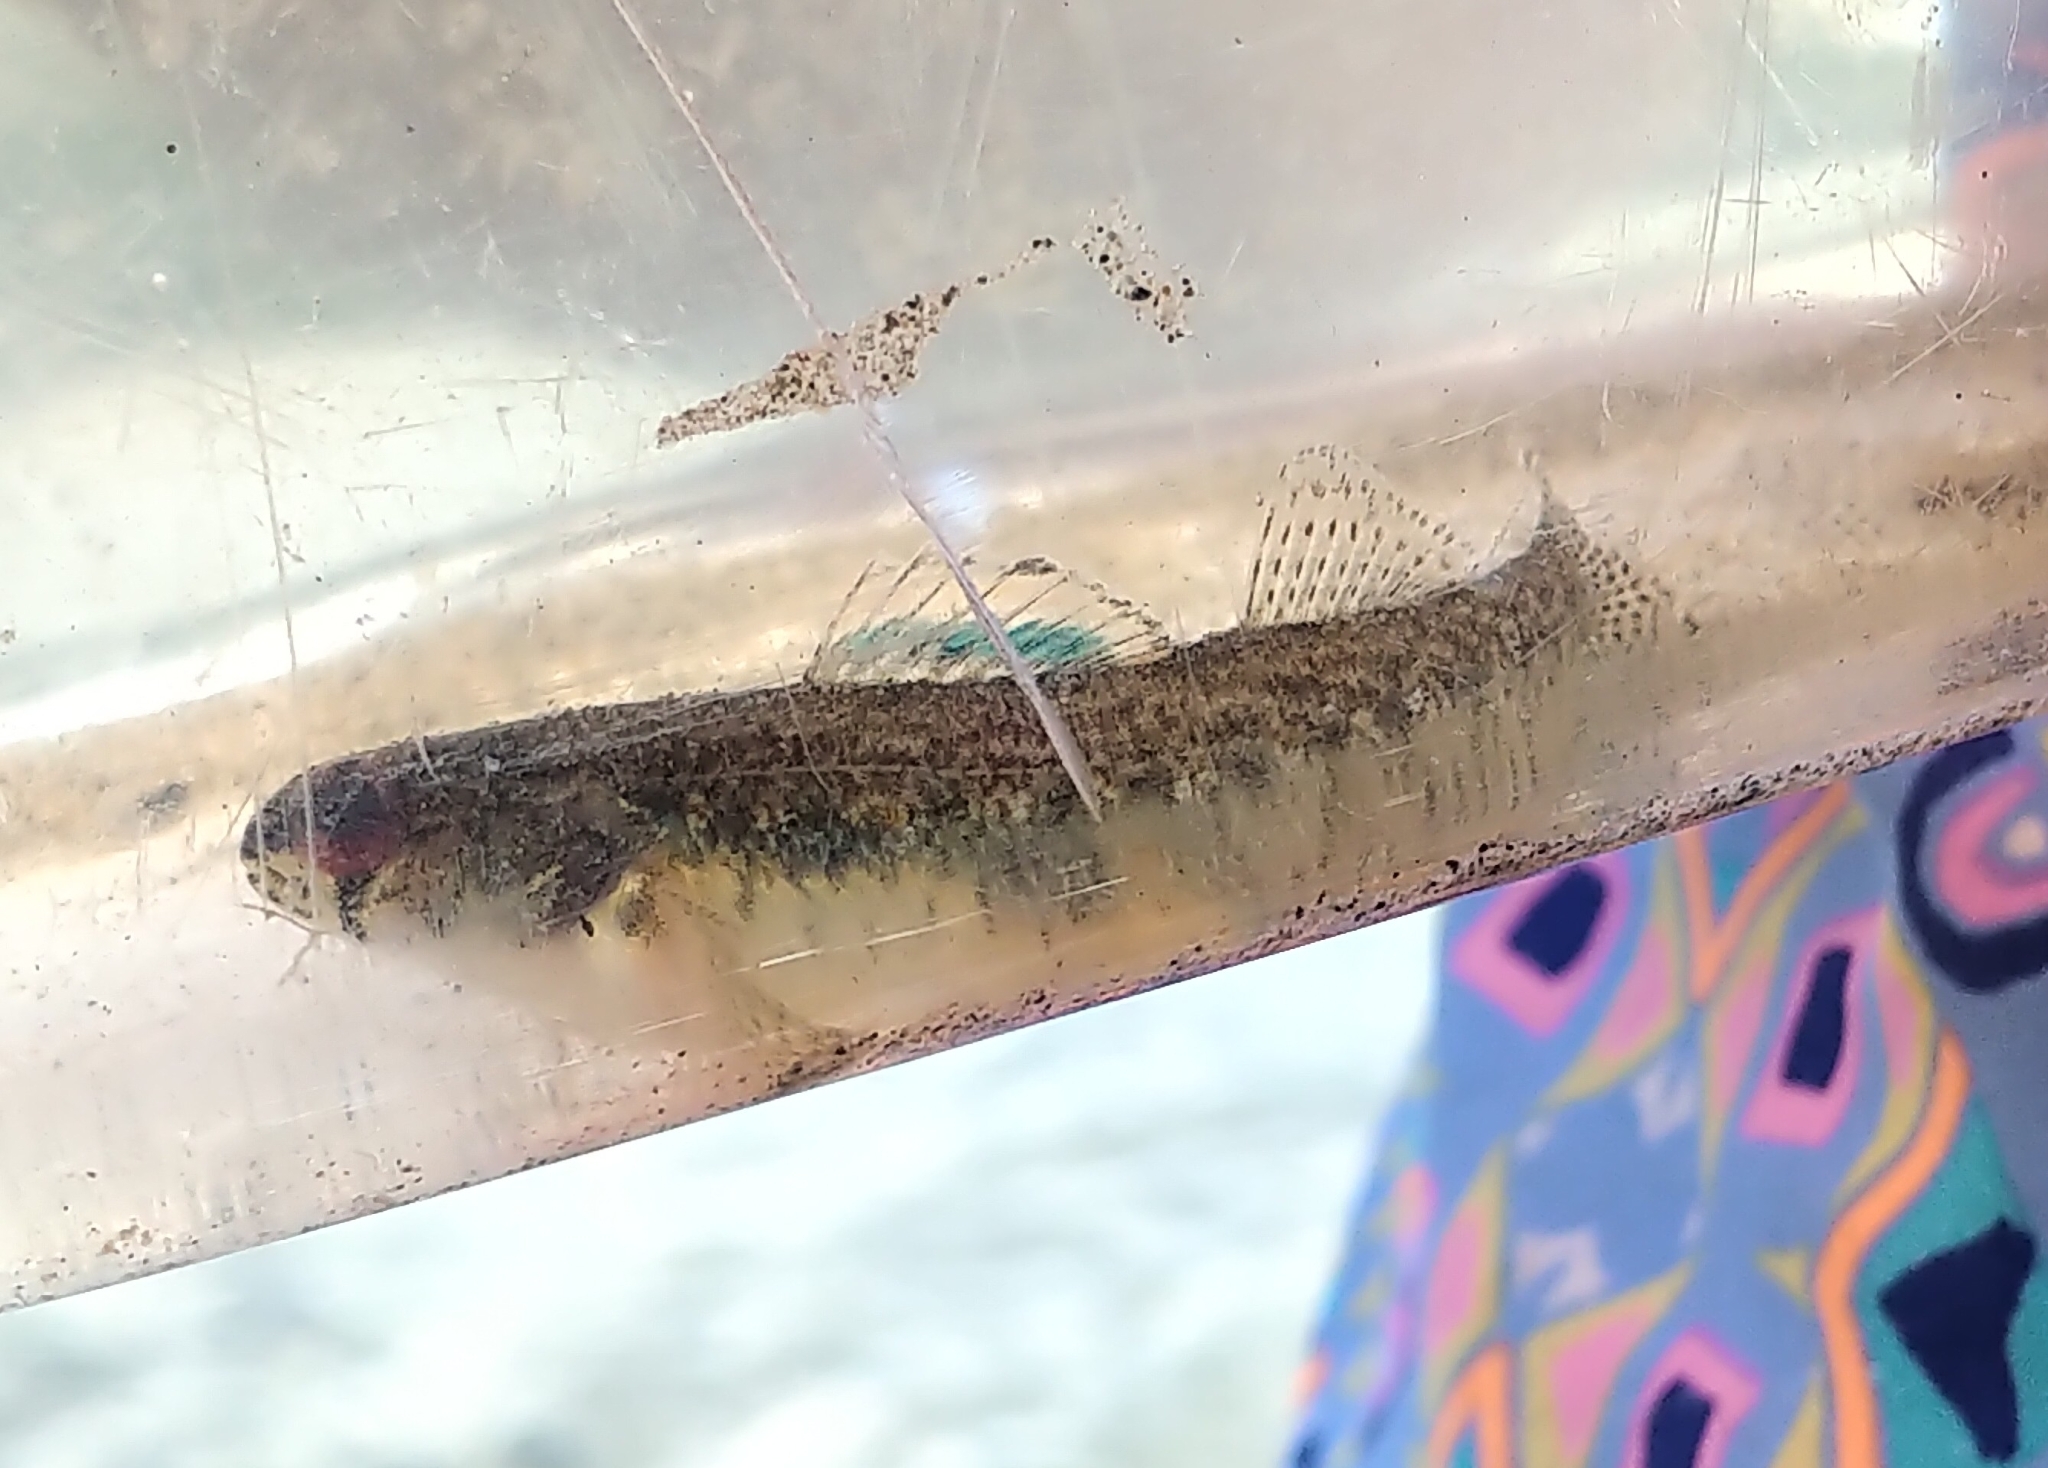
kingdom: Animalia
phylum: Chordata
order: Perciformes
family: Percidae
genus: Etheostoma
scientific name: Etheostoma exile
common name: Iowa darter
